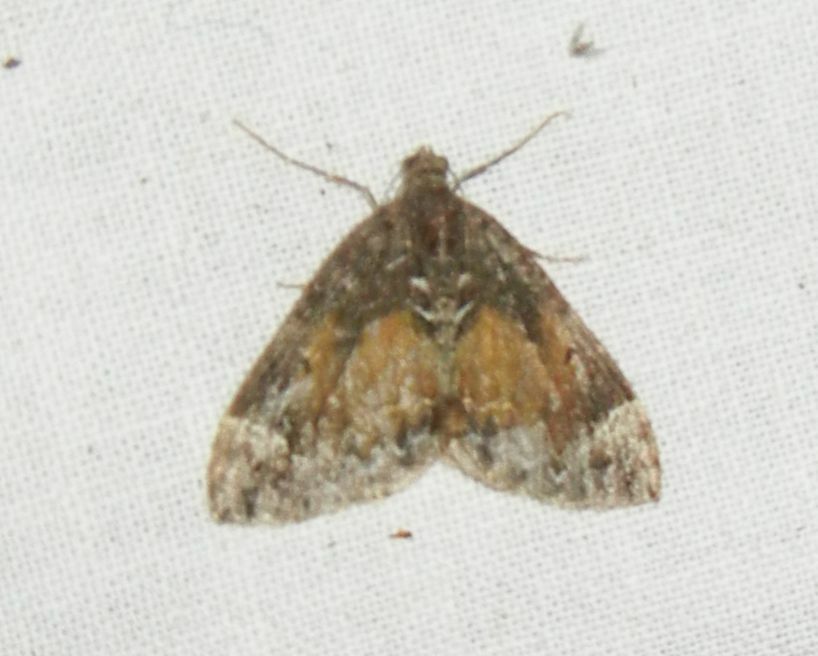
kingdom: Animalia
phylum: Arthropoda
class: Insecta
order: Lepidoptera
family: Geometridae
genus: Dysstroma
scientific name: Dysstroma truncata
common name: Common marbled carpet
